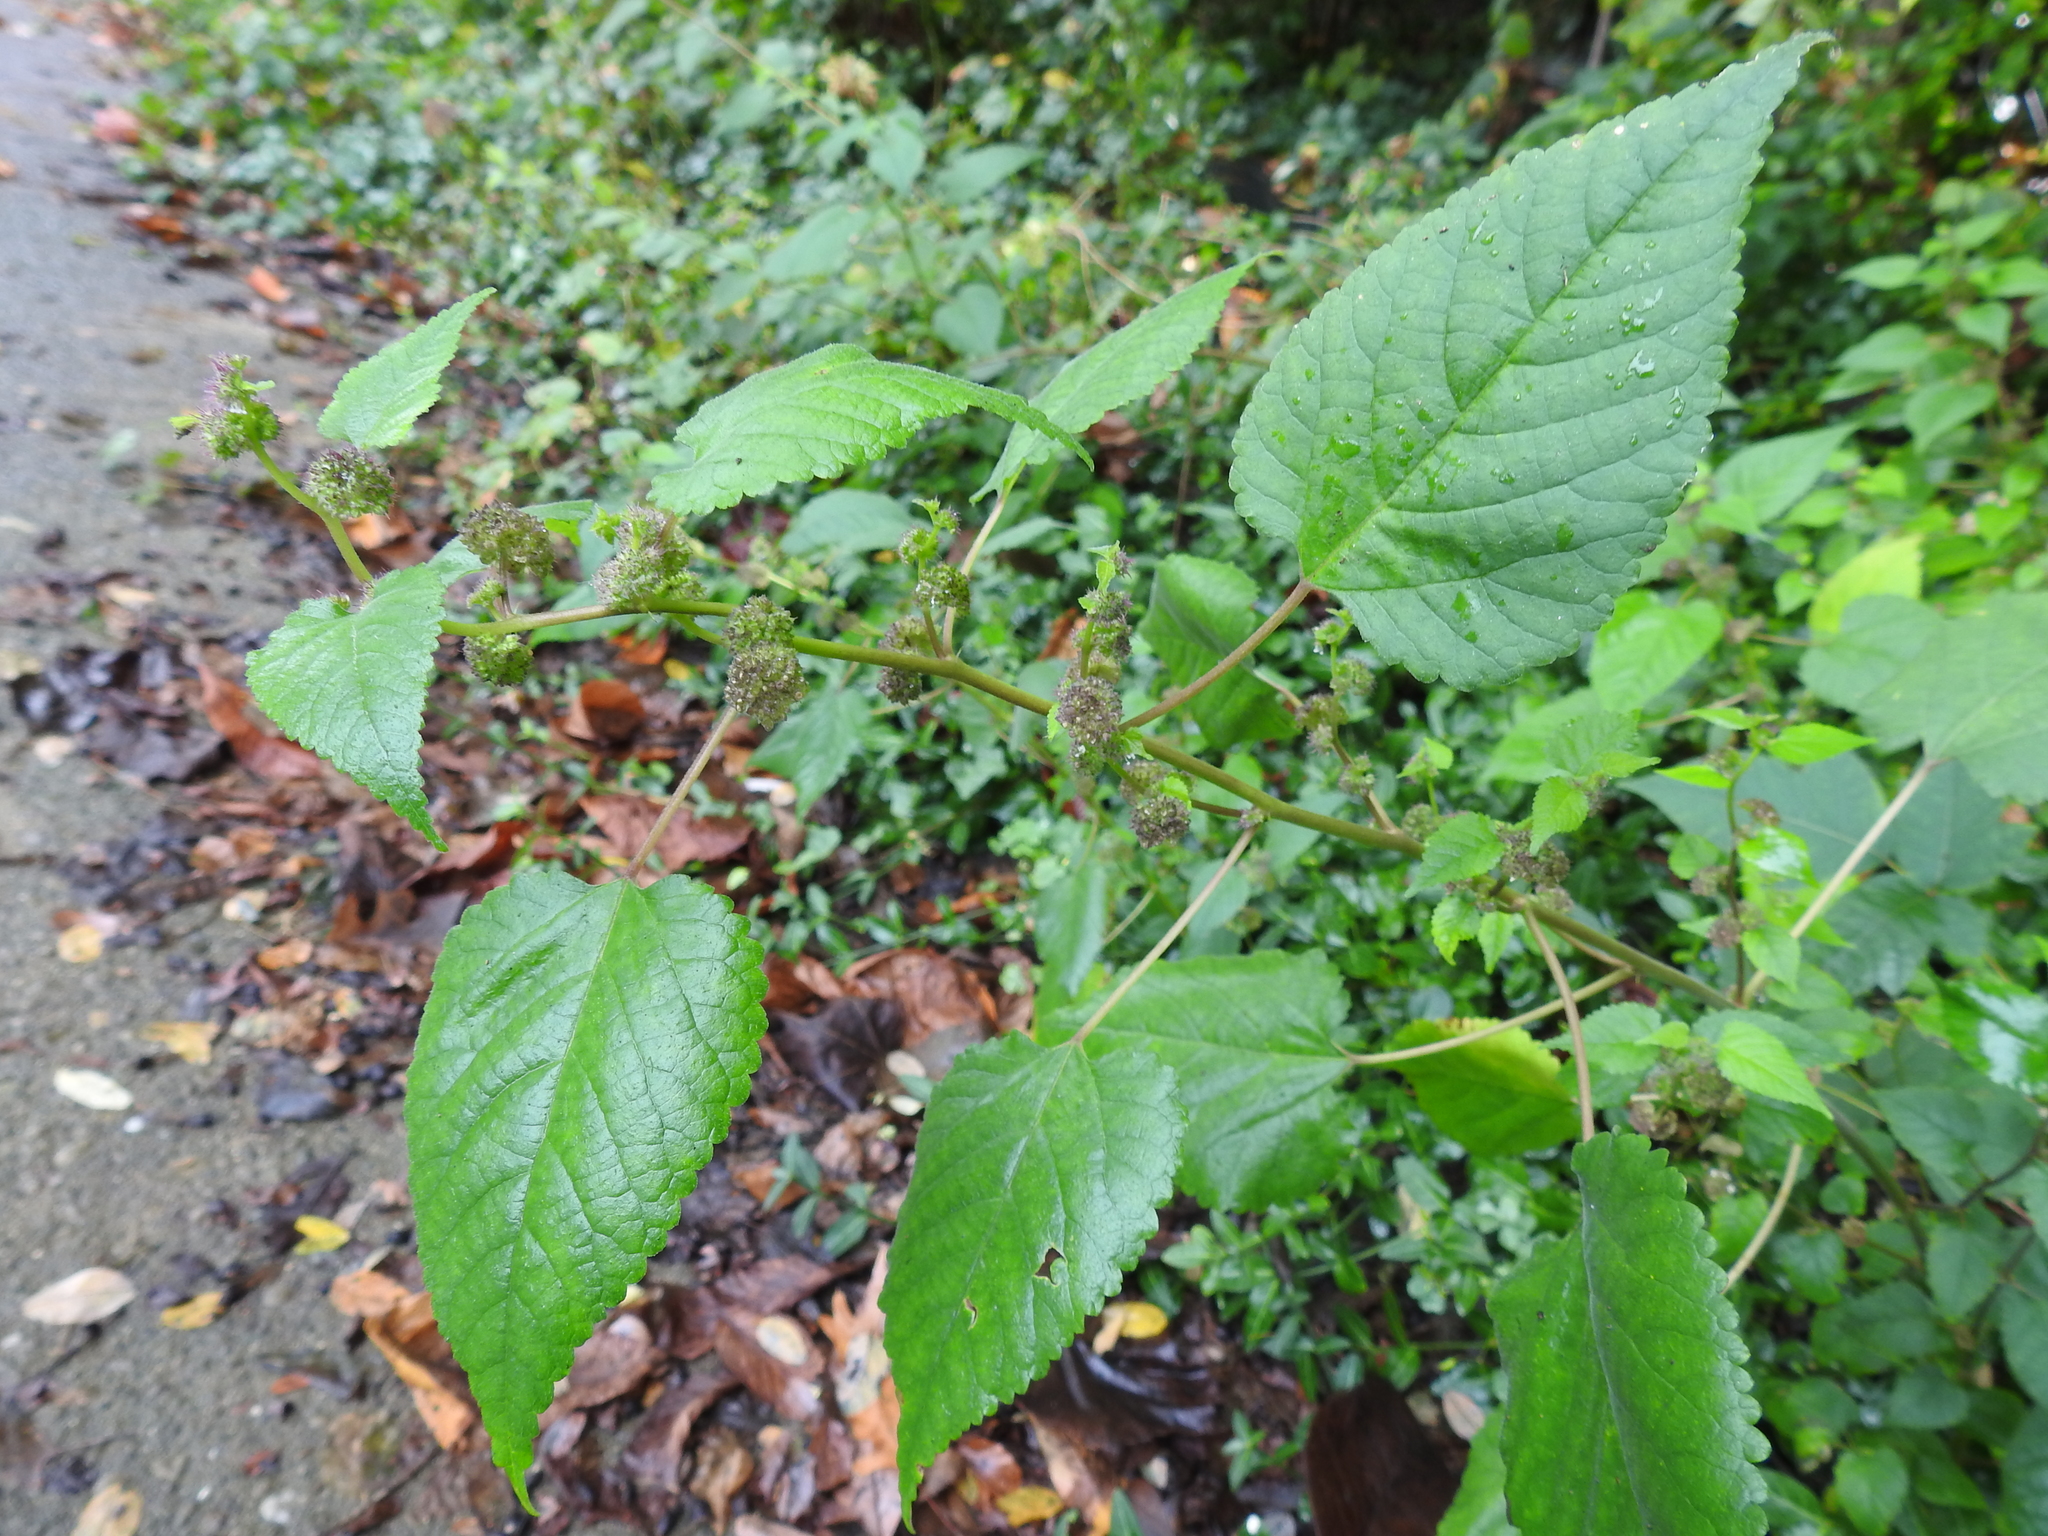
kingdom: Plantae
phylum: Tracheophyta
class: Magnoliopsida
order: Rosales
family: Moraceae
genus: Fatoua
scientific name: Fatoua villosa
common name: Hairy crabweed
